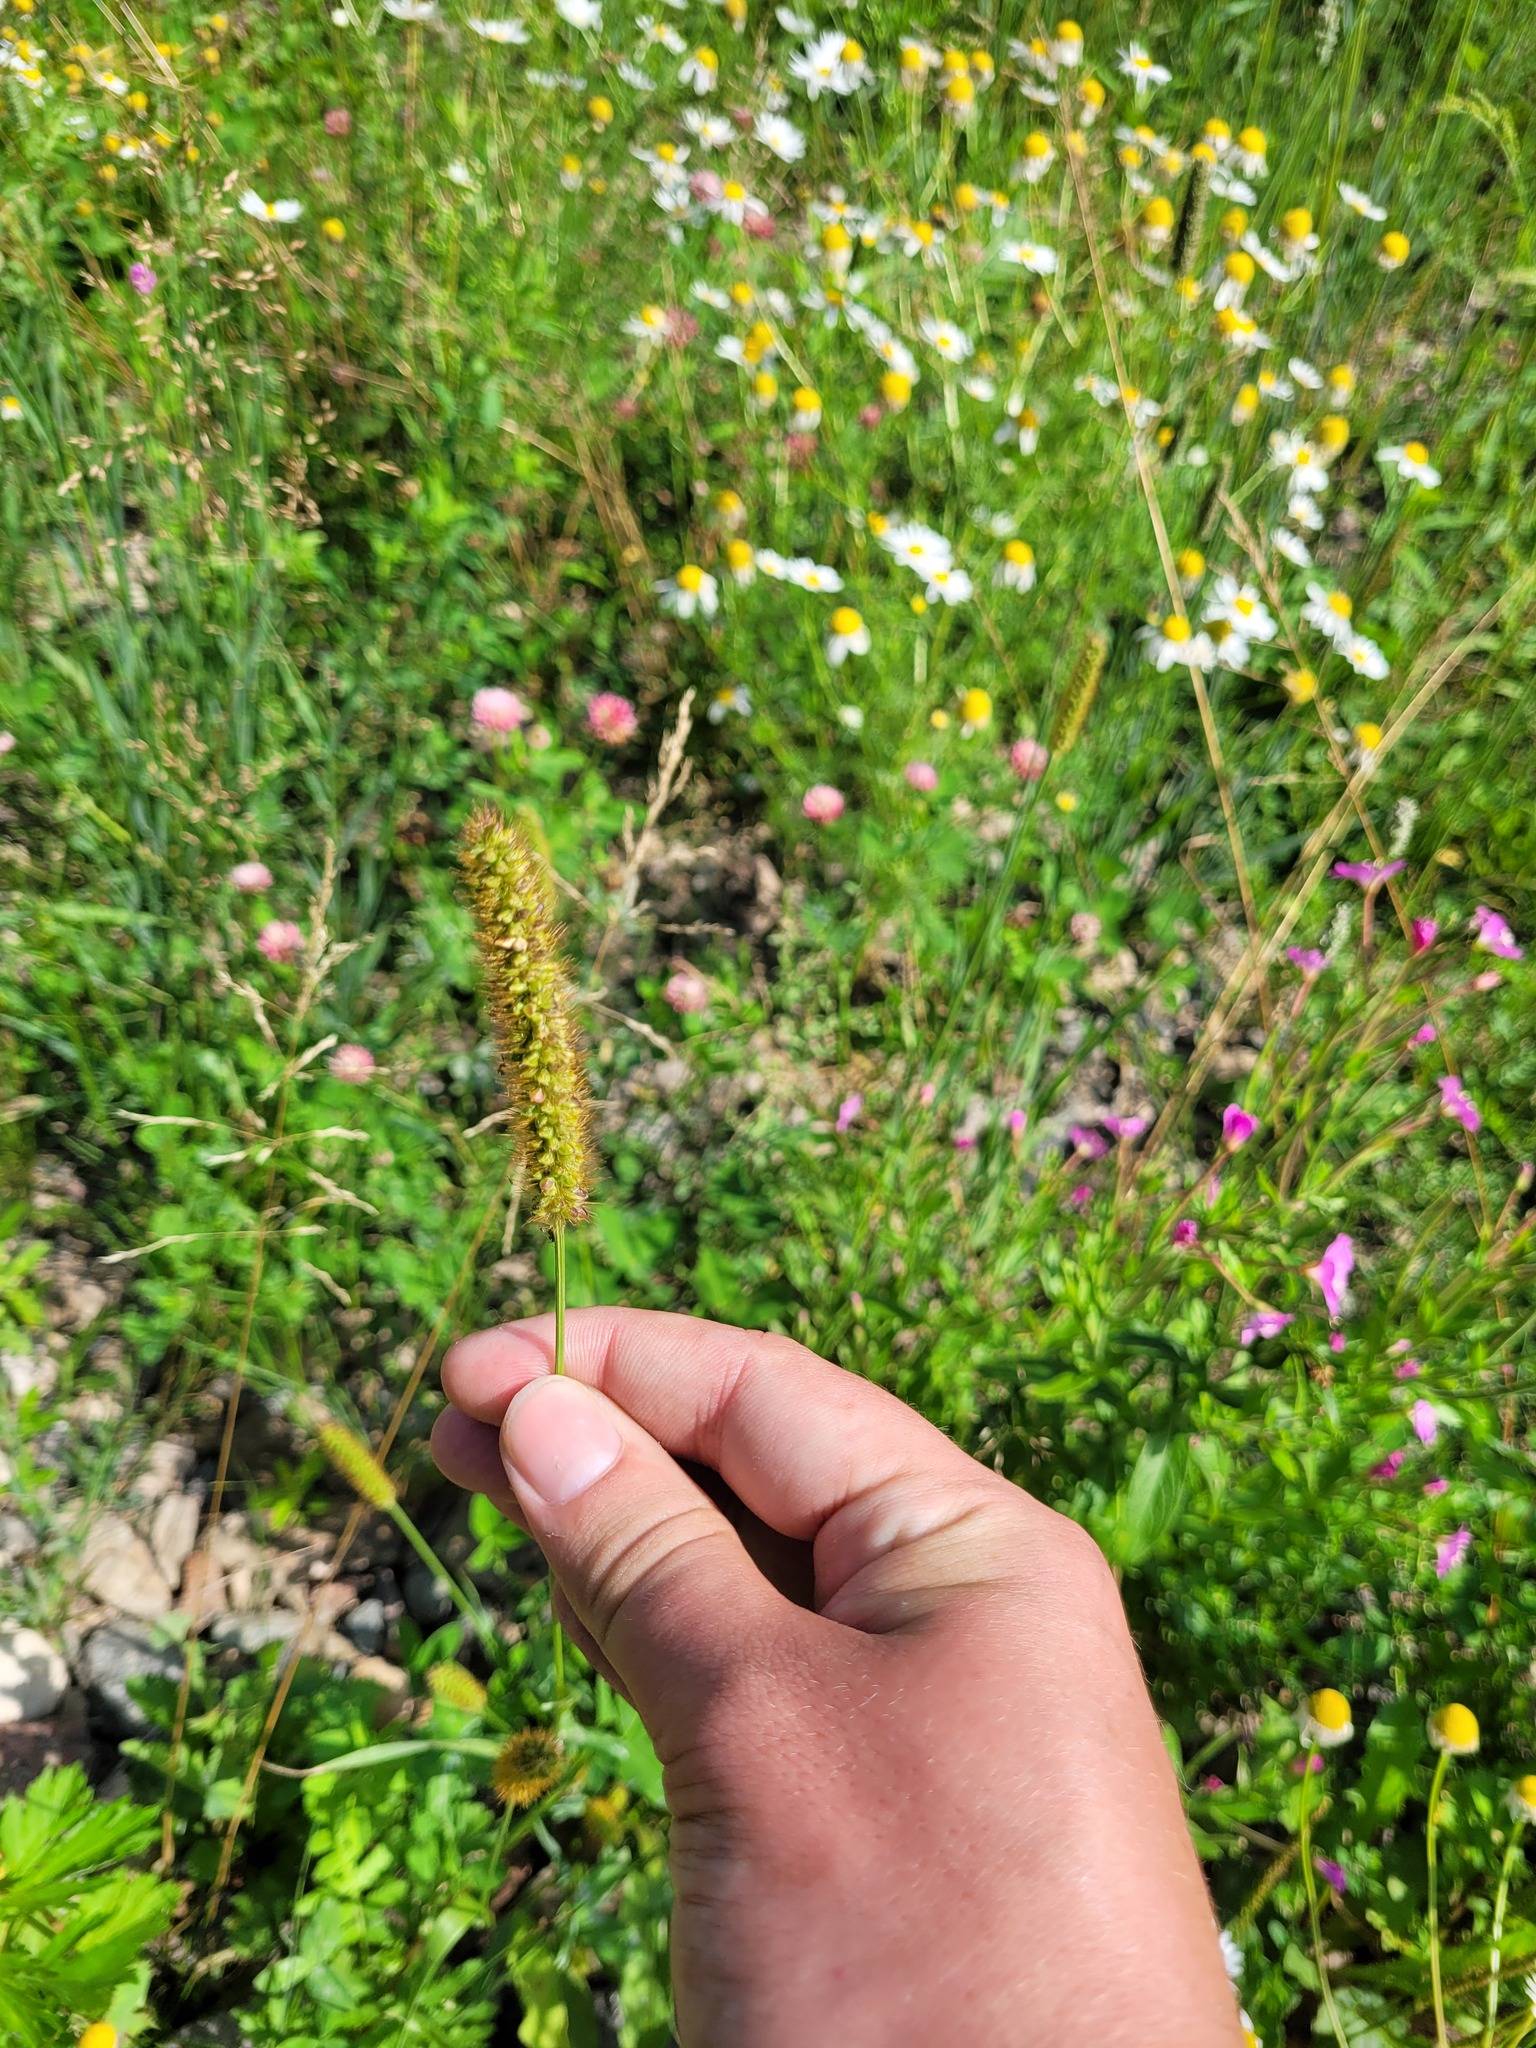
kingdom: Plantae
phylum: Tracheophyta
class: Liliopsida
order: Poales
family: Poaceae
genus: Setaria
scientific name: Setaria pumila
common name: Yellow bristle-grass
